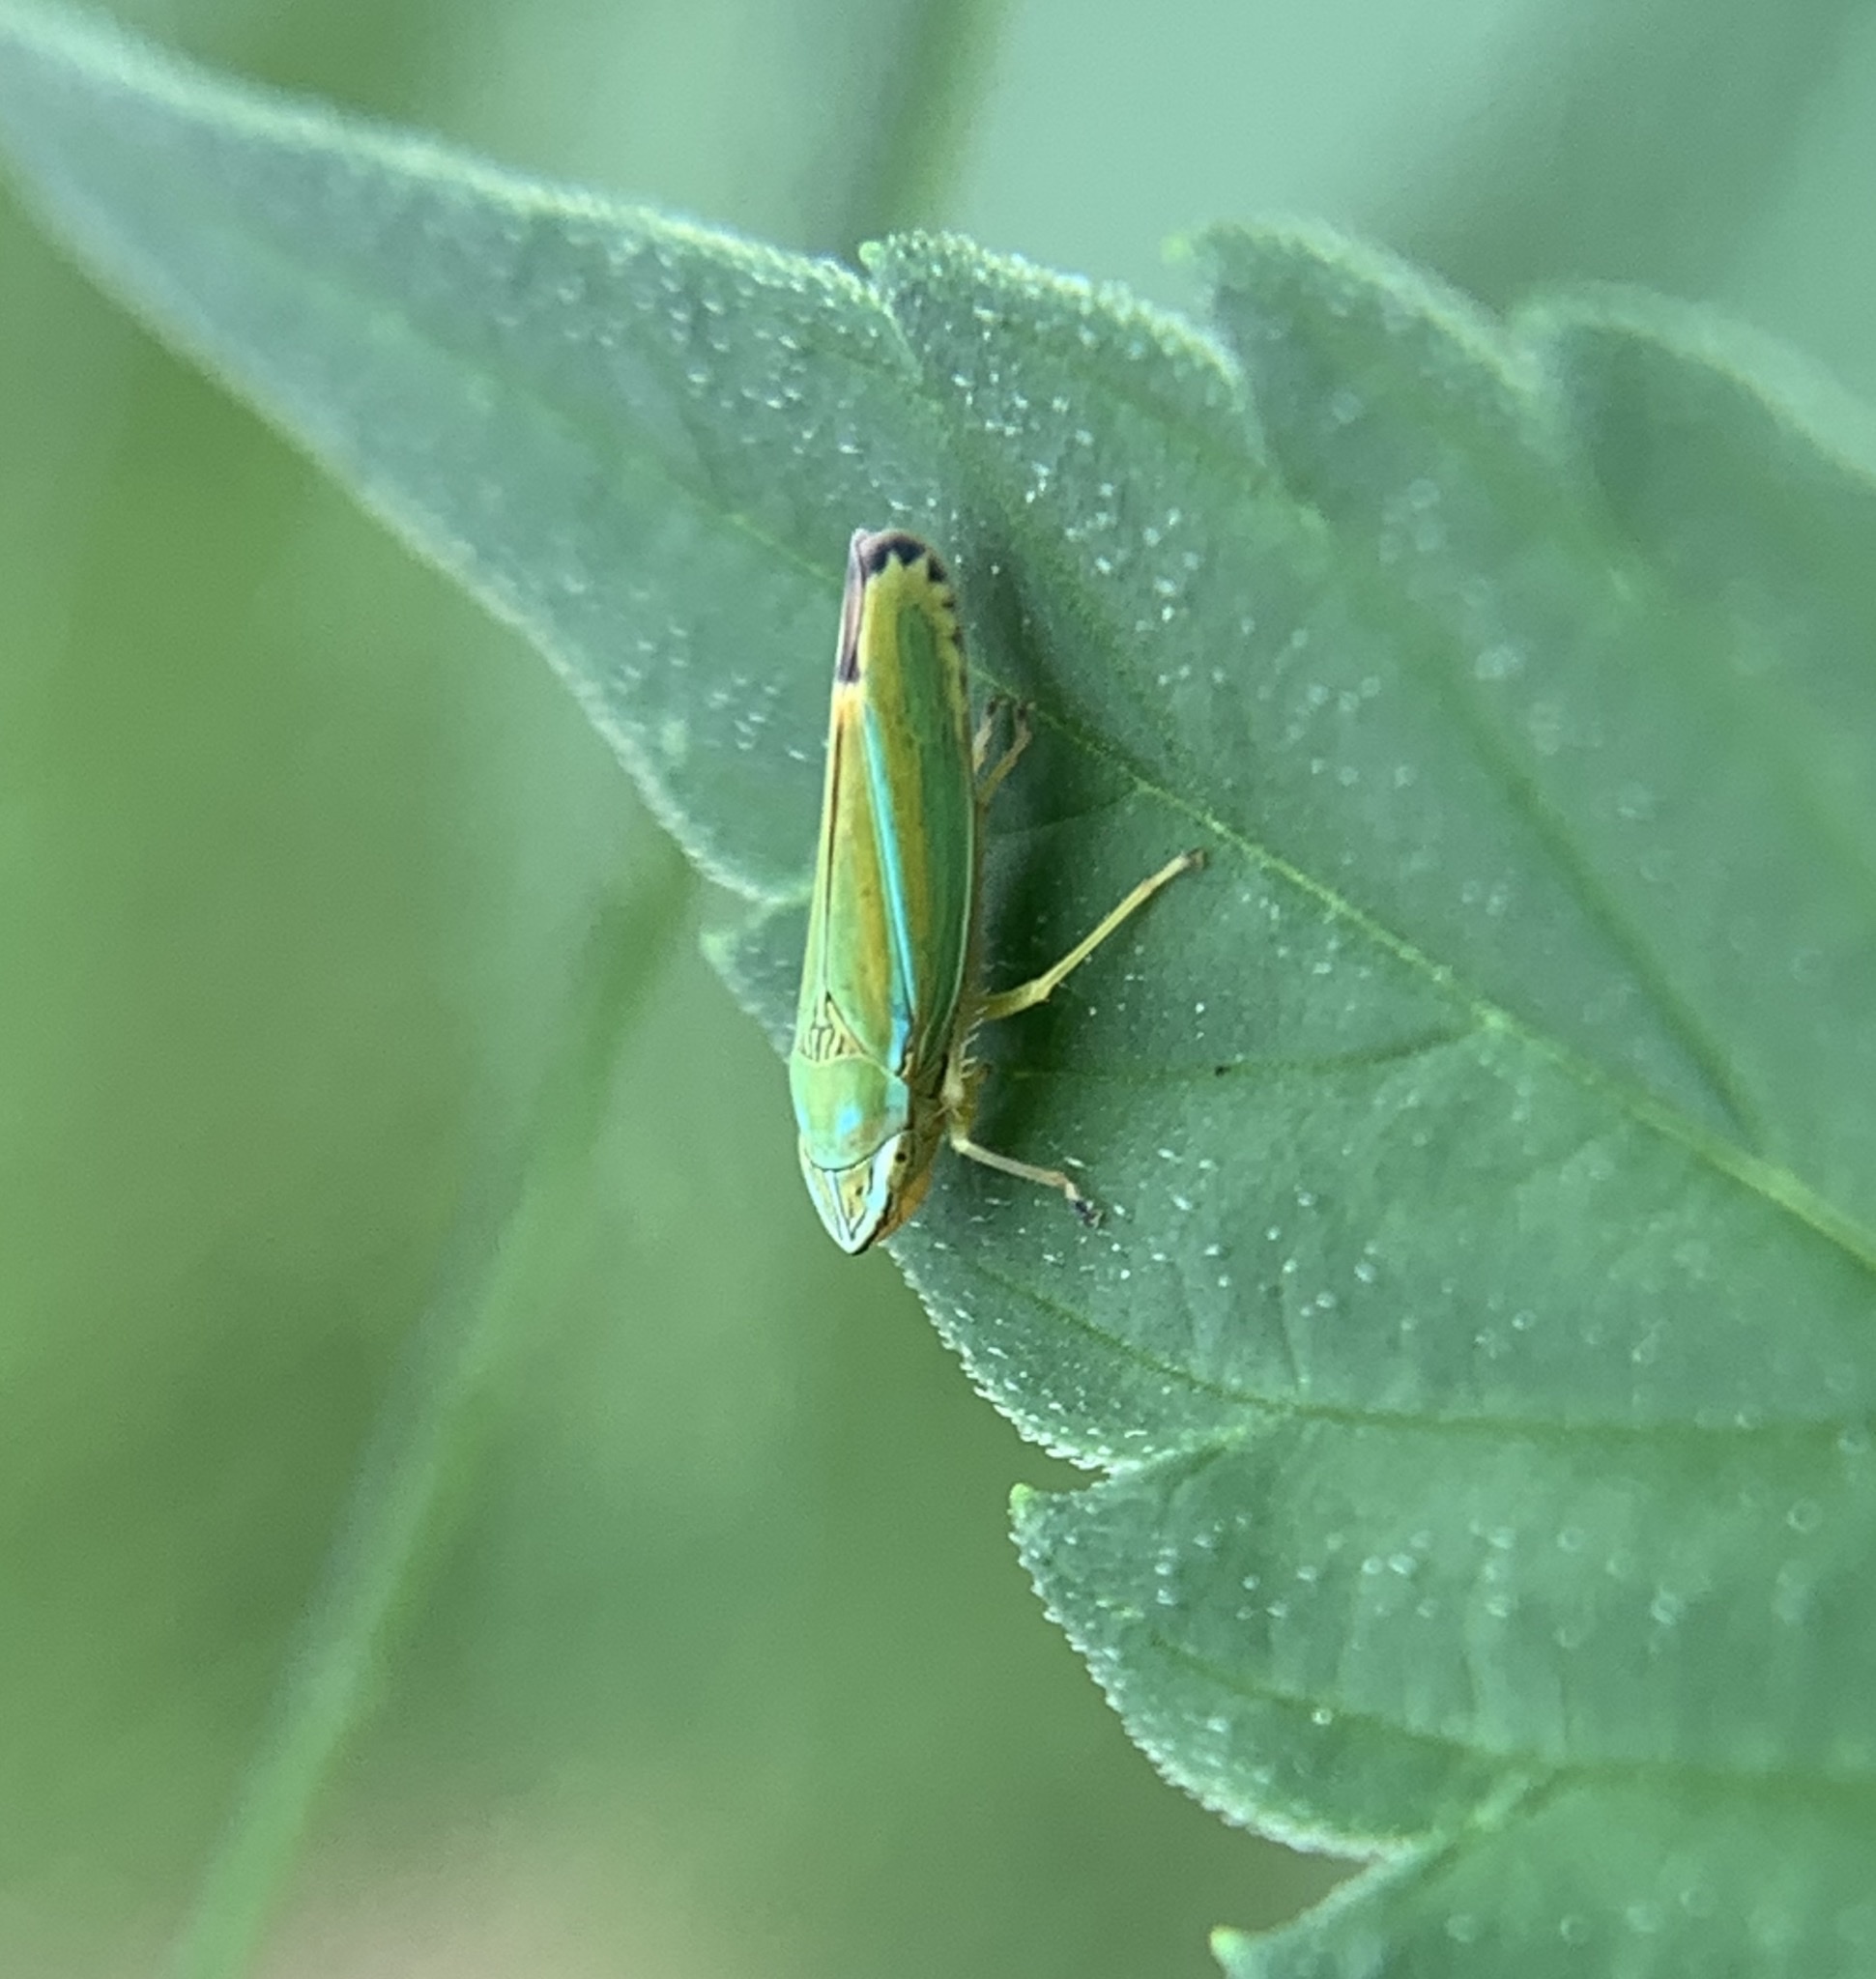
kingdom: Animalia
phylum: Arthropoda
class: Insecta
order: Hemiptera
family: Cicadellidae
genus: Graphocephala
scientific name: Graphocephala versuta
